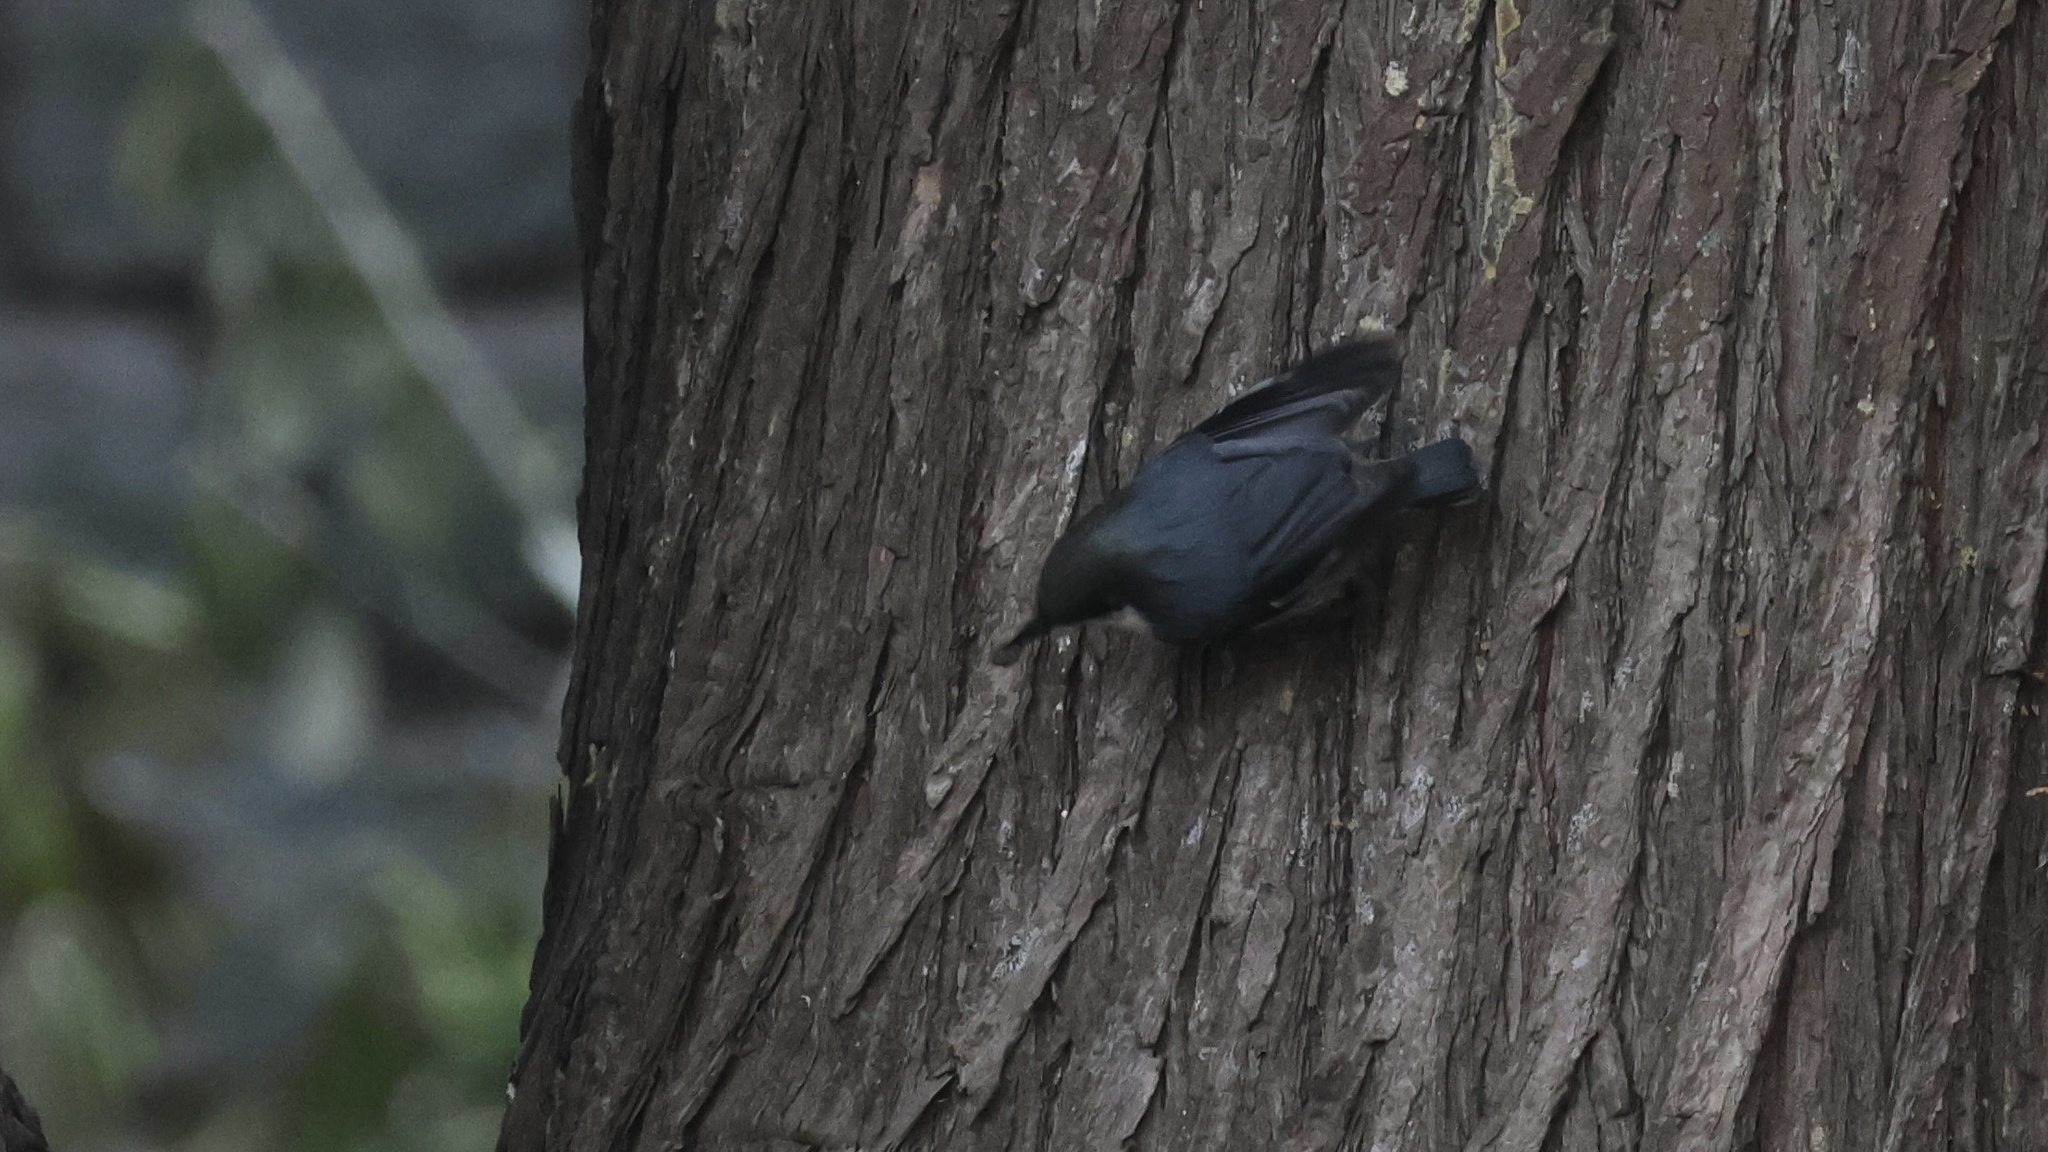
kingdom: Animalia
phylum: Chordata
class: Aves
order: Passeriformes
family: Sittidae
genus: Sitta
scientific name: Sitta pygmaea
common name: Pygmy nuthatch
